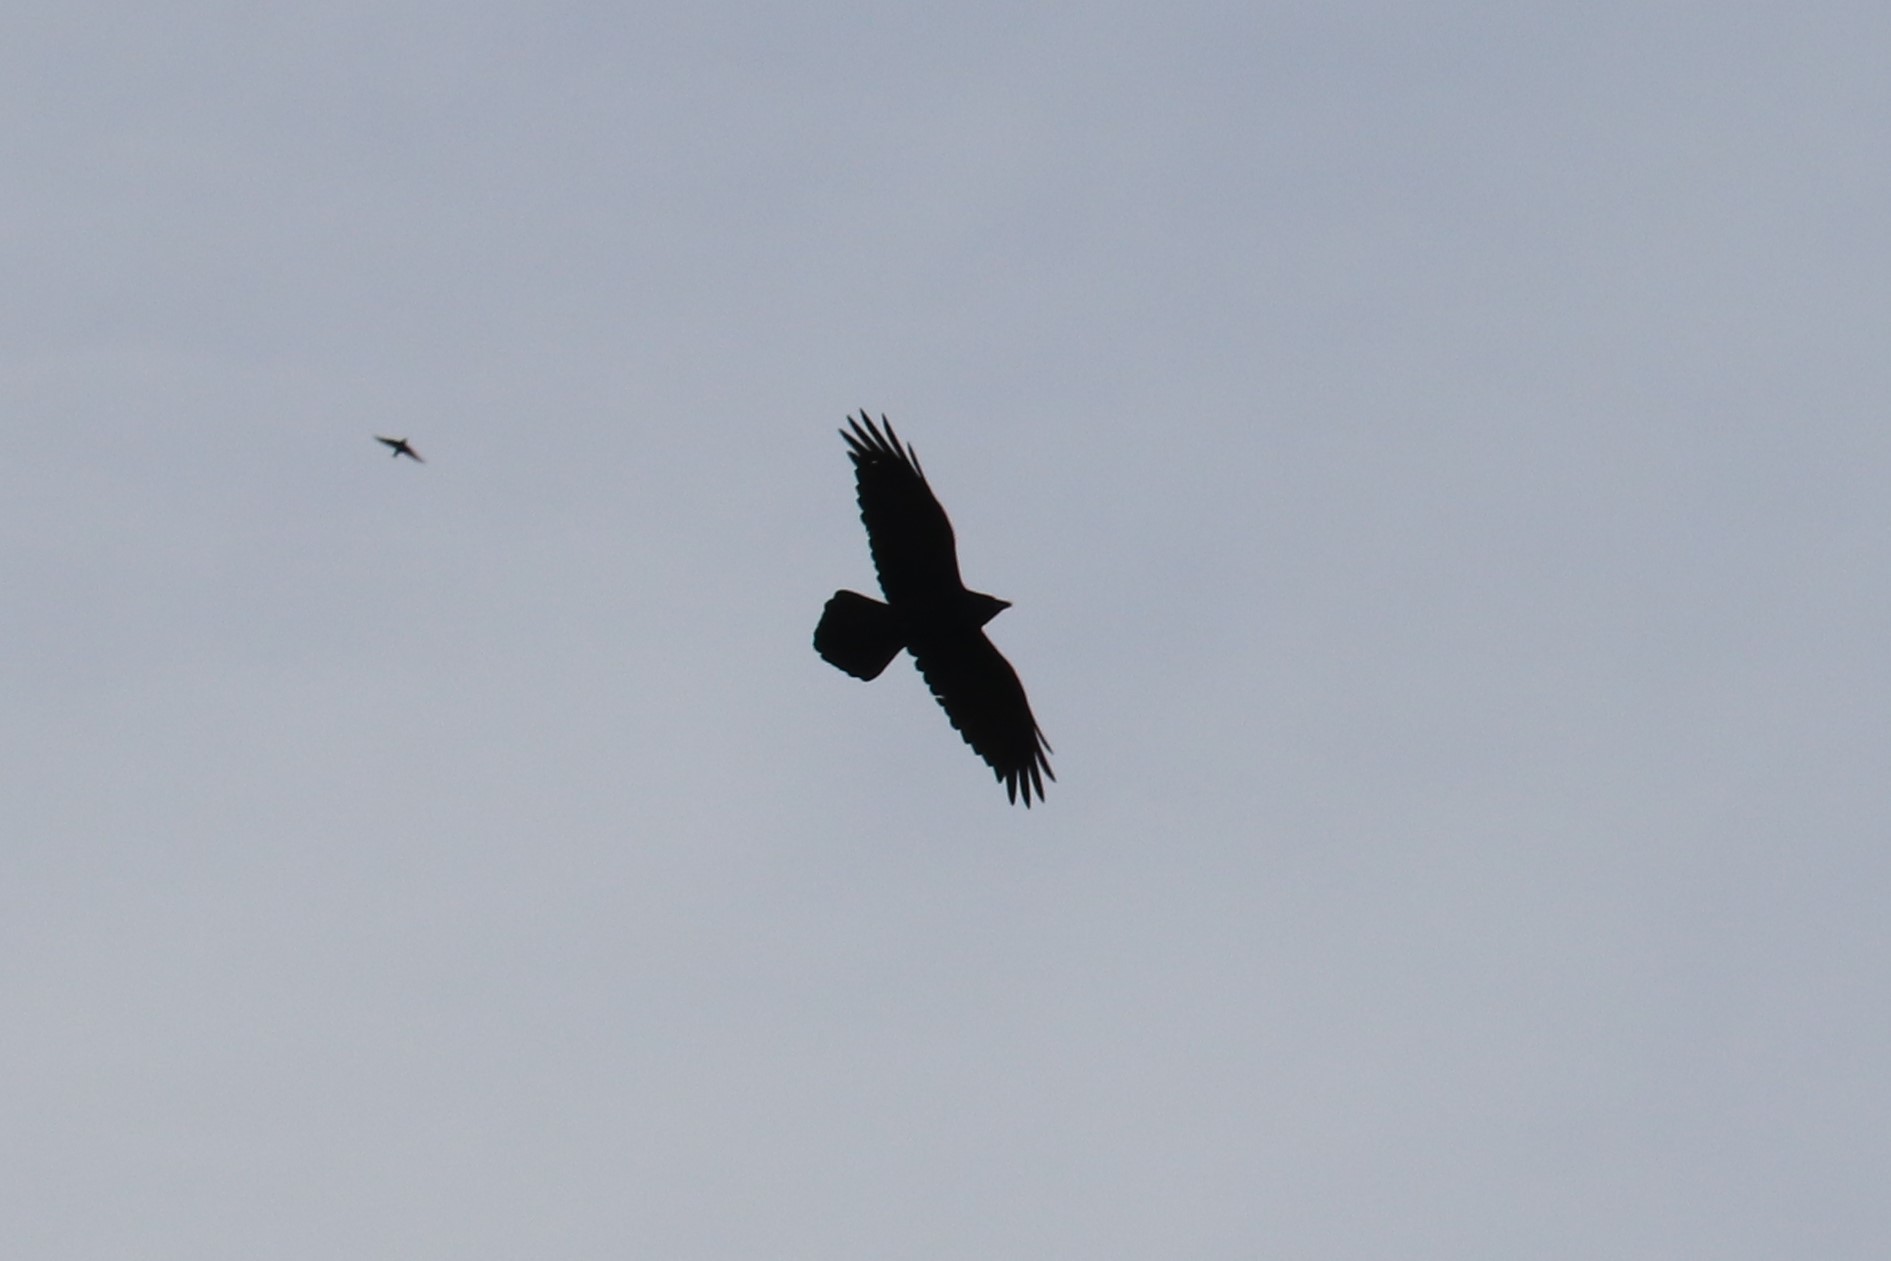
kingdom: Animalia
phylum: Chordata
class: Aves
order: Passeriformes
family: Corvidae
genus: Corvus
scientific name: Corvus corax
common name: Common raven
